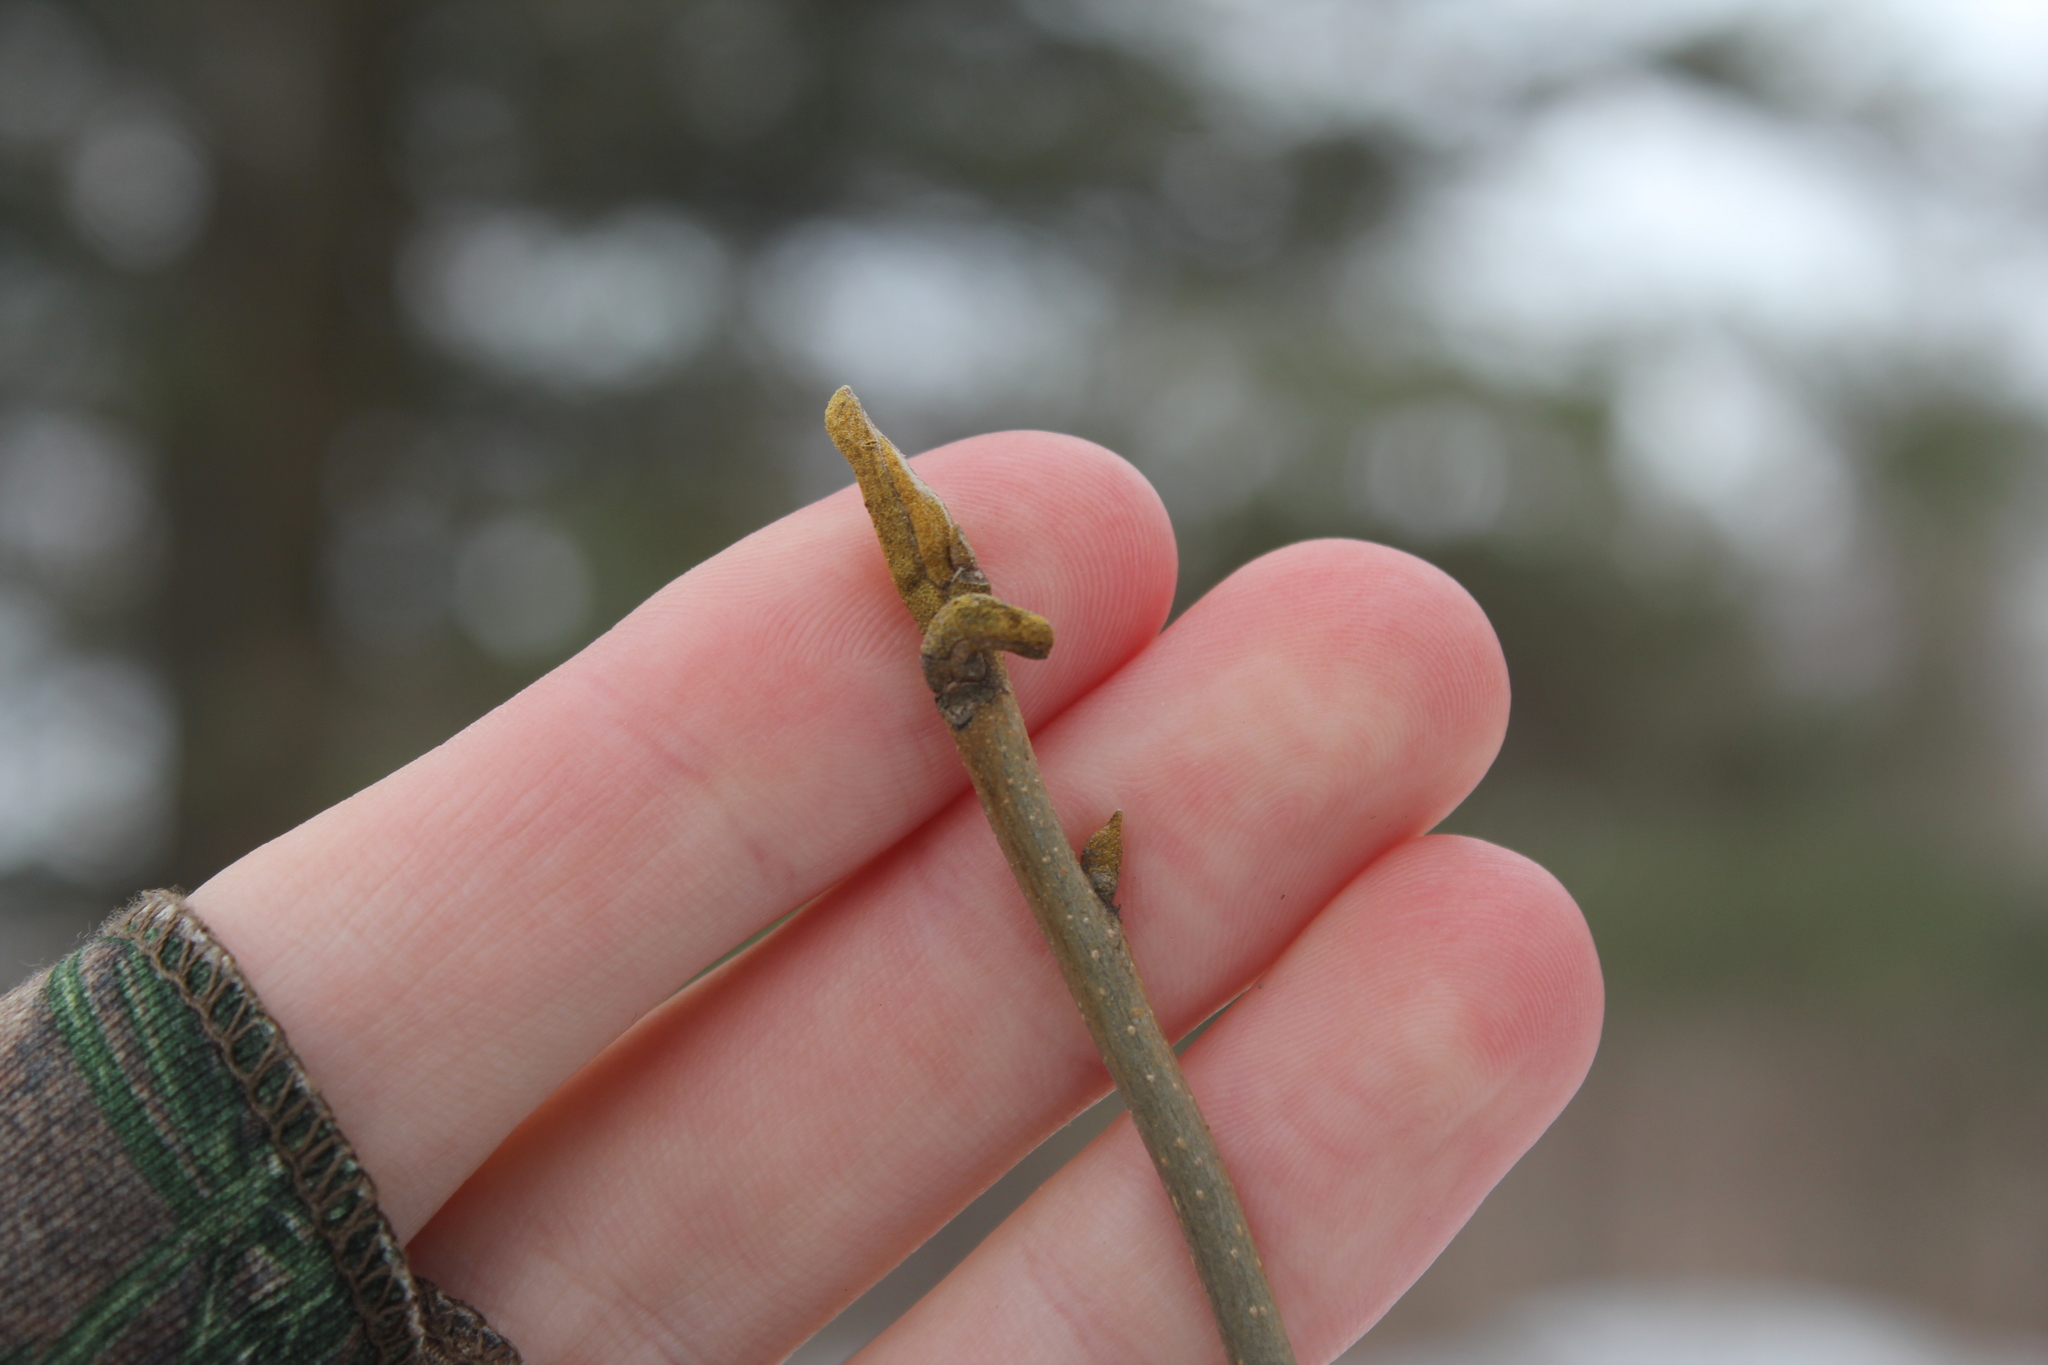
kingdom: Plantae
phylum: Tracheophyta
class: Magnoliopsida
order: Fagales
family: Juglandaceae
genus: Carya
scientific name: Carya cordiformis
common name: Bitternut hickory
